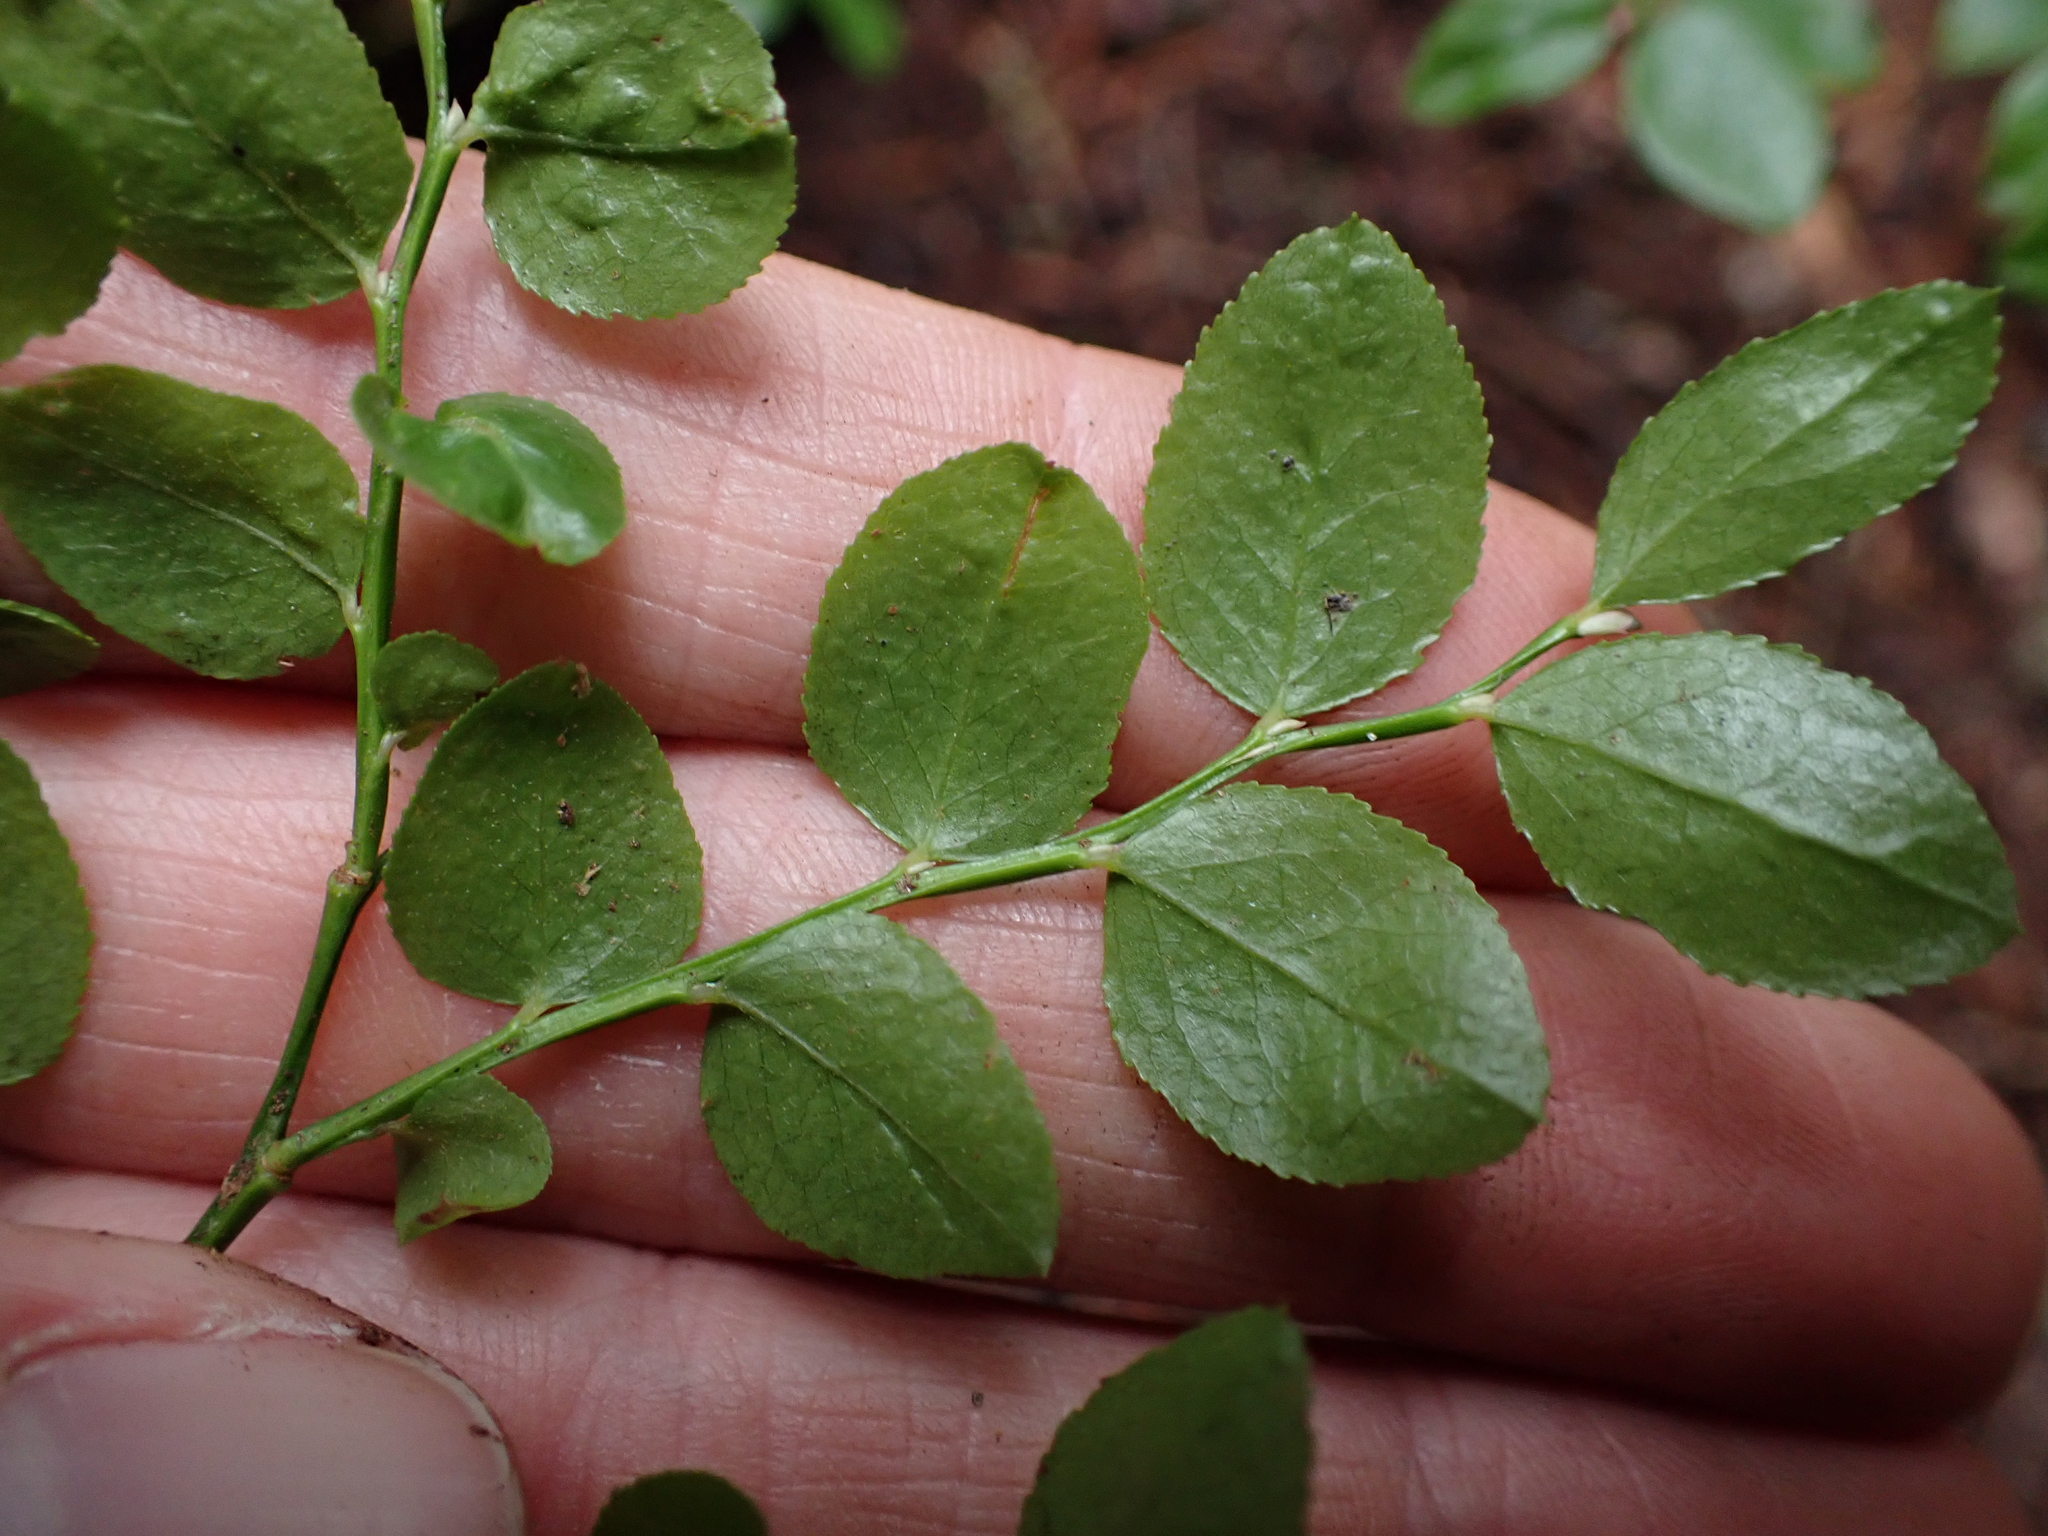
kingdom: Plantae
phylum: Tracheophyta
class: Magnoliopsida
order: Ericales
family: Ericaceae
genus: Vaccinium
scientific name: Vaccinium parvifolium
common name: Red-huckleberry
